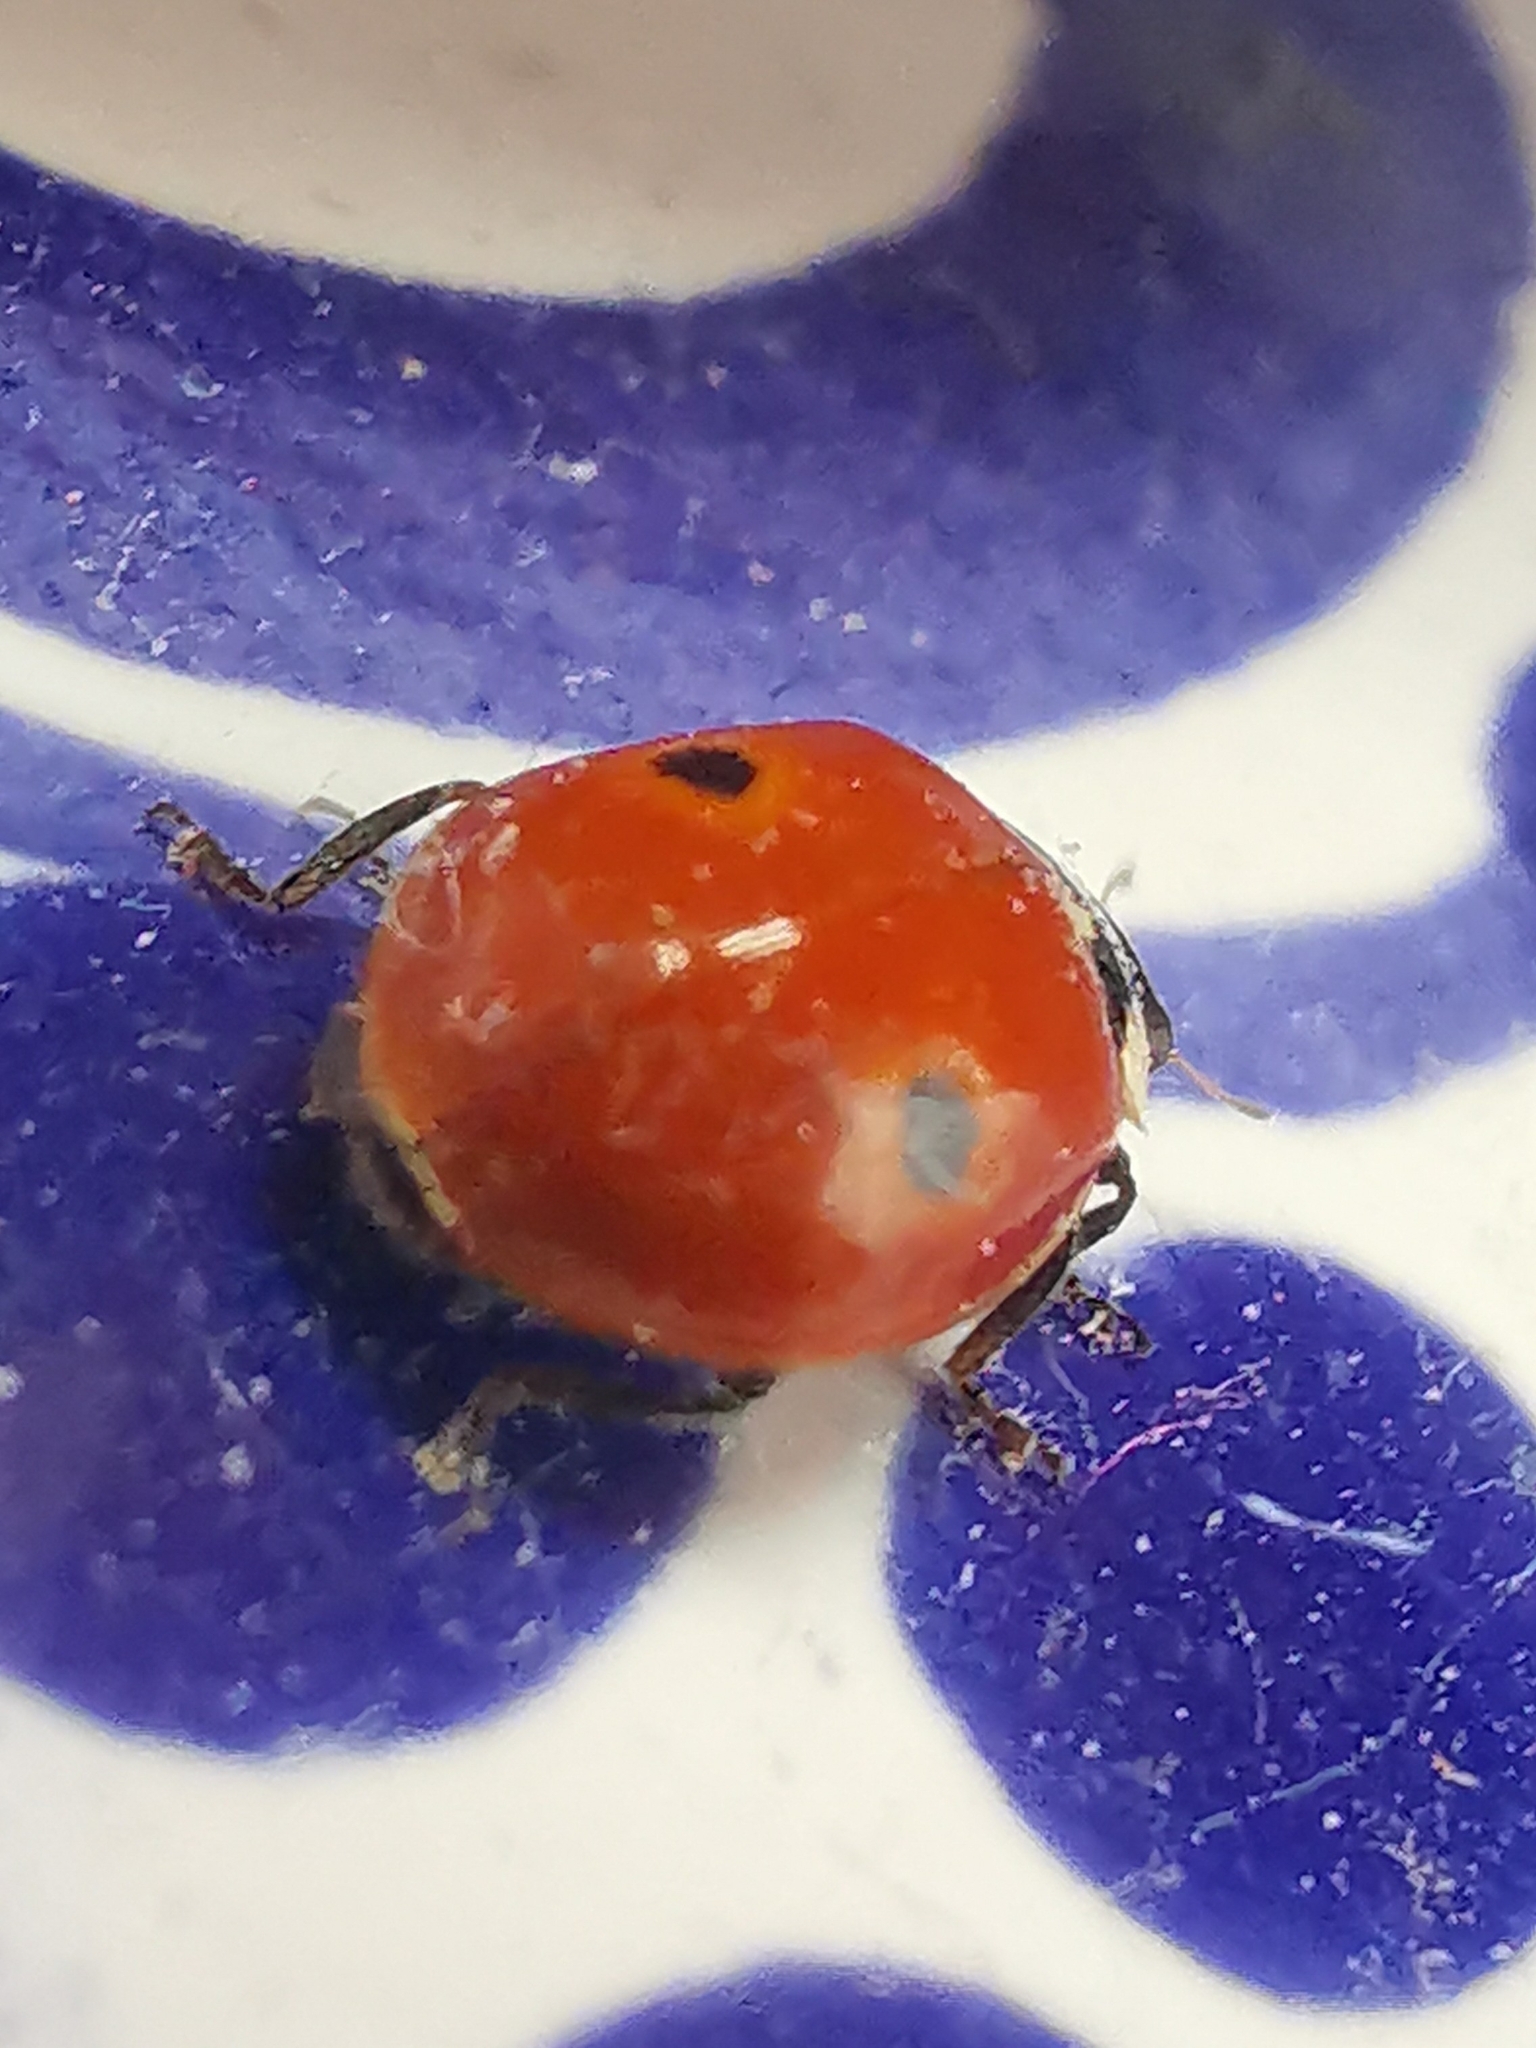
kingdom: Animalia
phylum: Arthropoda
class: Insecta
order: Coleoptera
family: Coccinellidae
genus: Adalia
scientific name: Adalia bipunctata
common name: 2-spot ladybird
